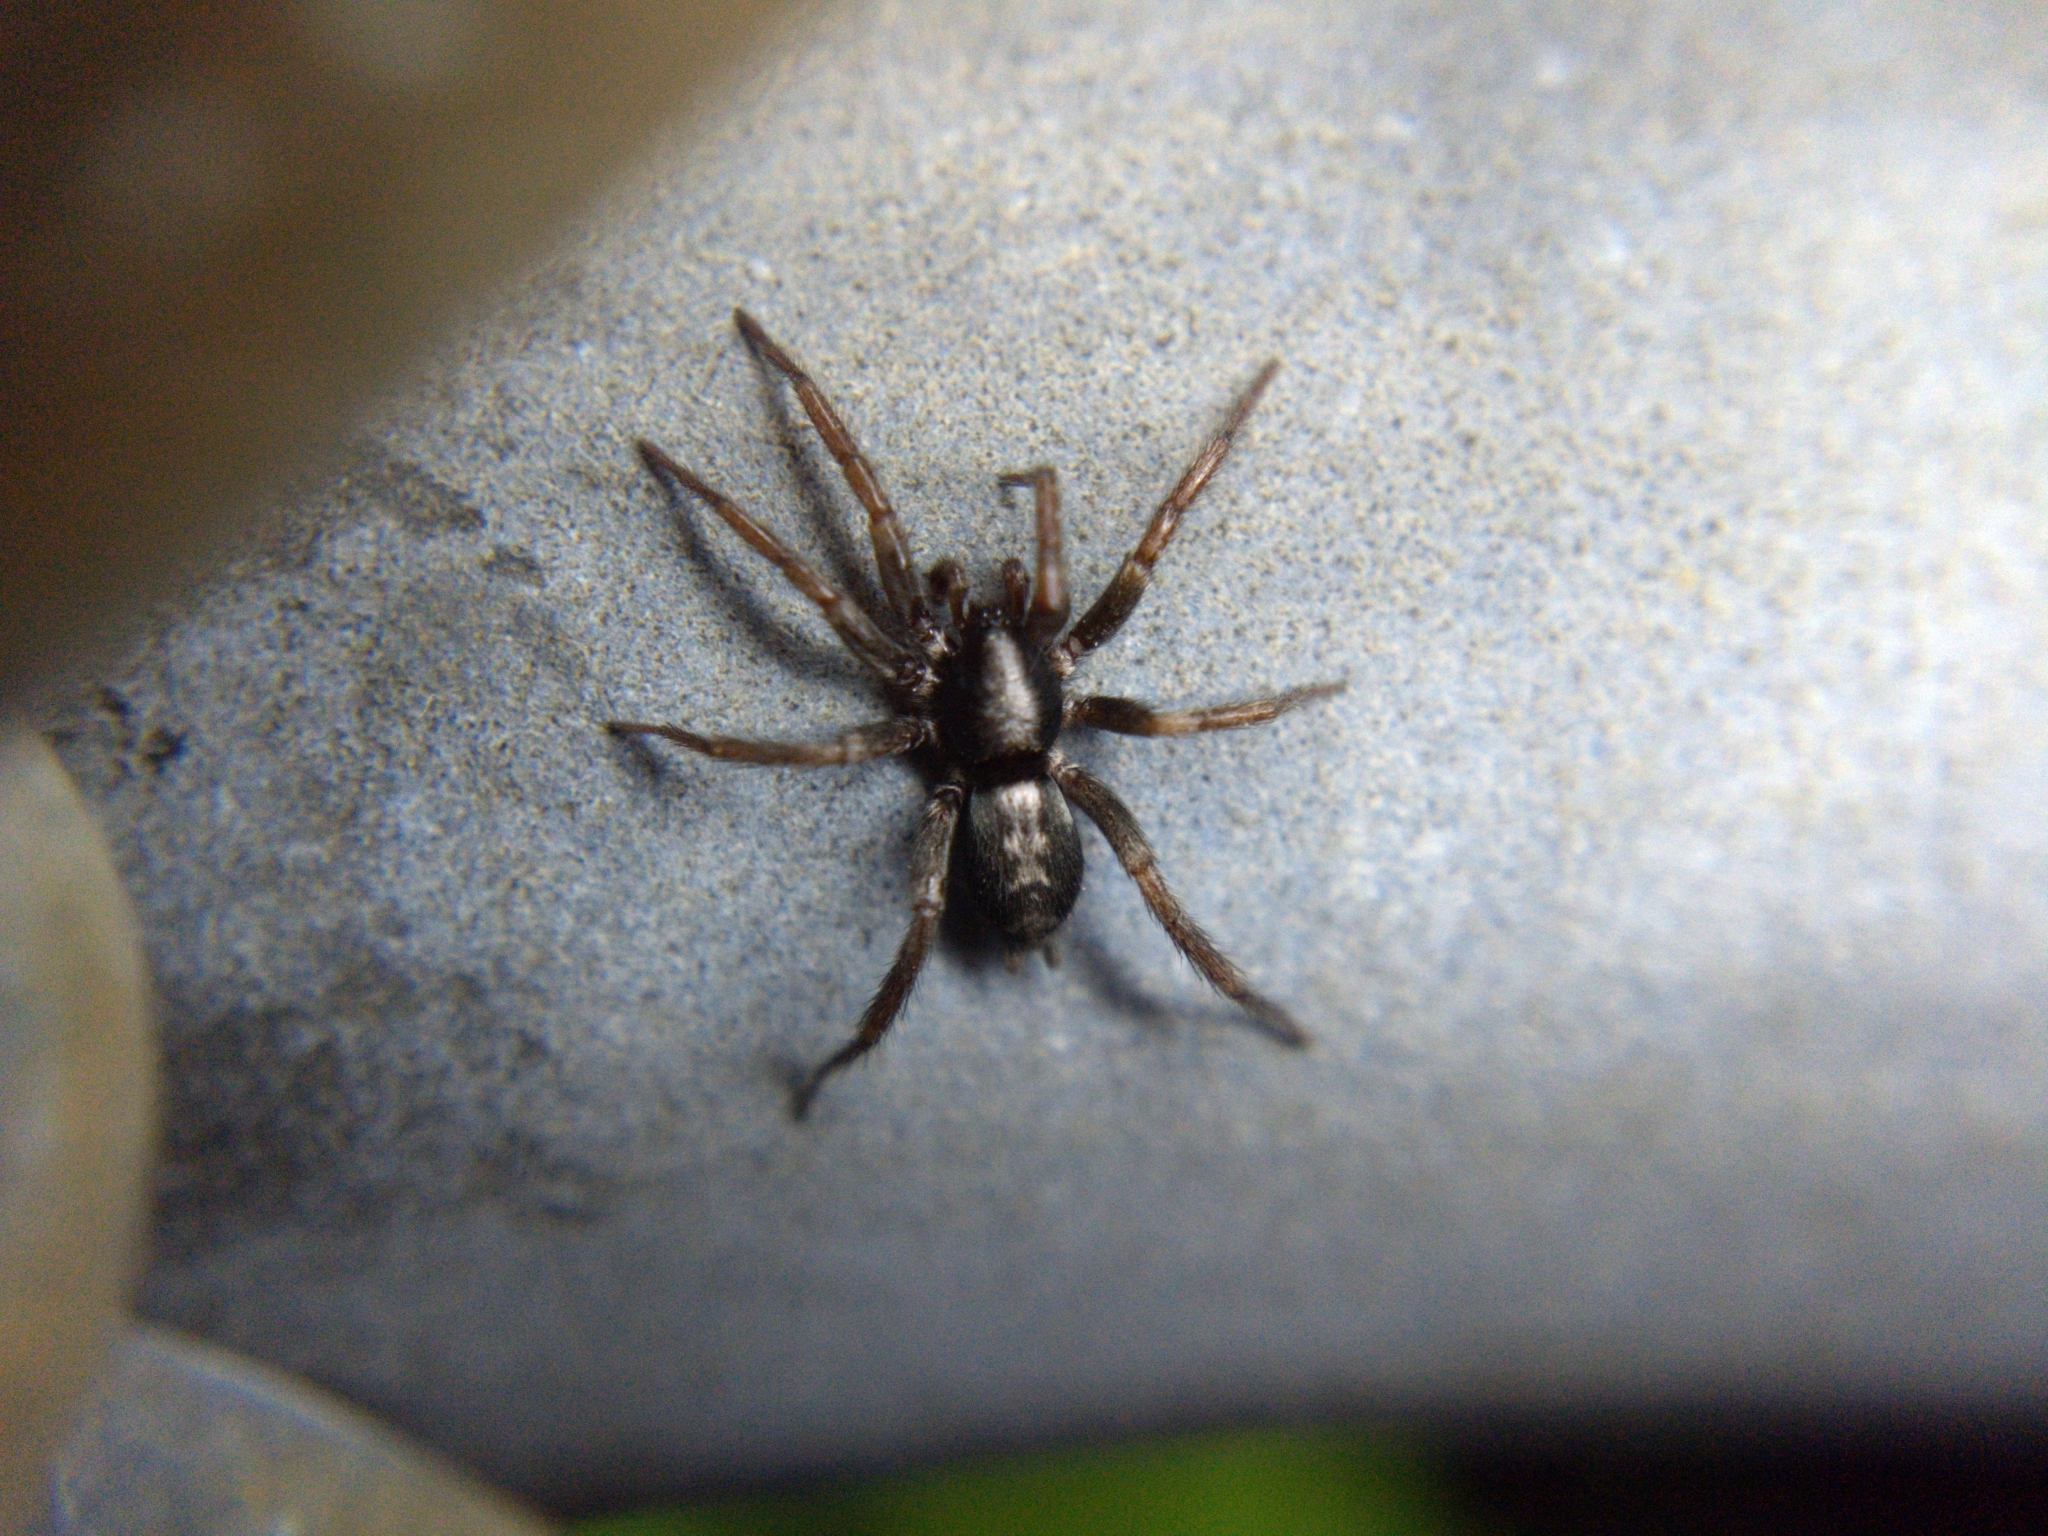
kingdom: Animalia
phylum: Arthropoda
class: Arachnida
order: Araneae
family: Gnaphosidae
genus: Herpyllus
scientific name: Herpyllus ecclesiasticus
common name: Eastern parson spider
